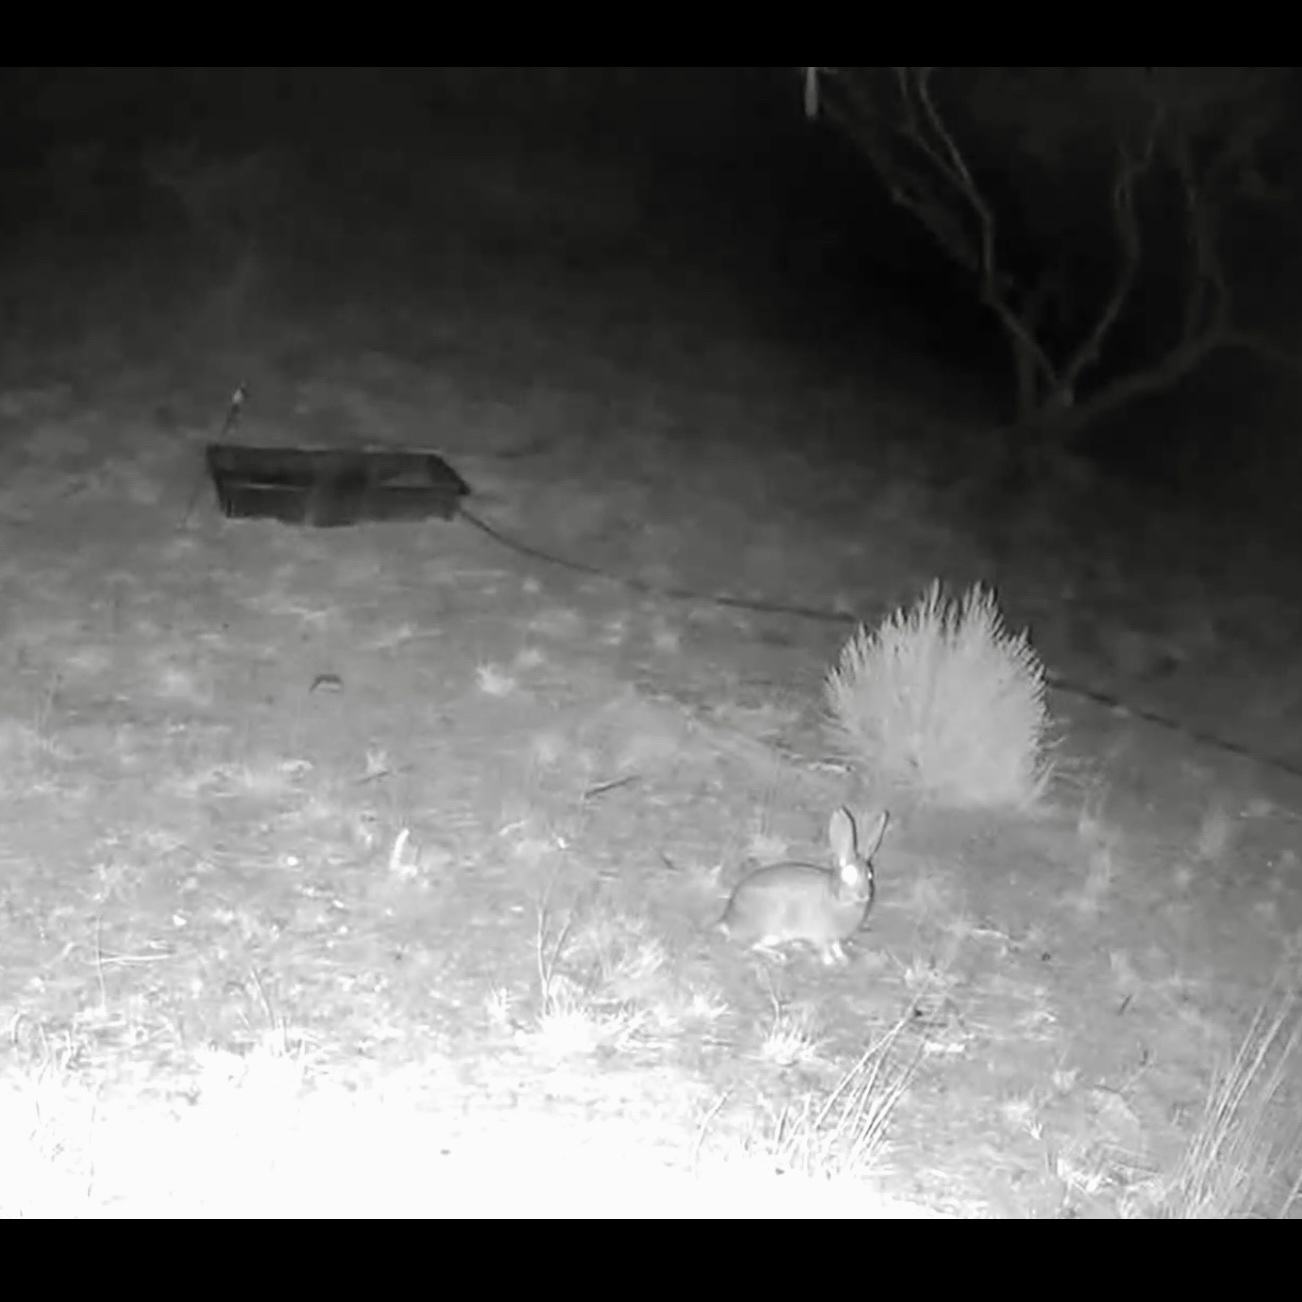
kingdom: Animalia
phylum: Chordata
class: Mammalia
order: Lagomorpha
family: Leporidae
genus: Sylvilagus
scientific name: Sylvilagus audubonii
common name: Desert cottontail
